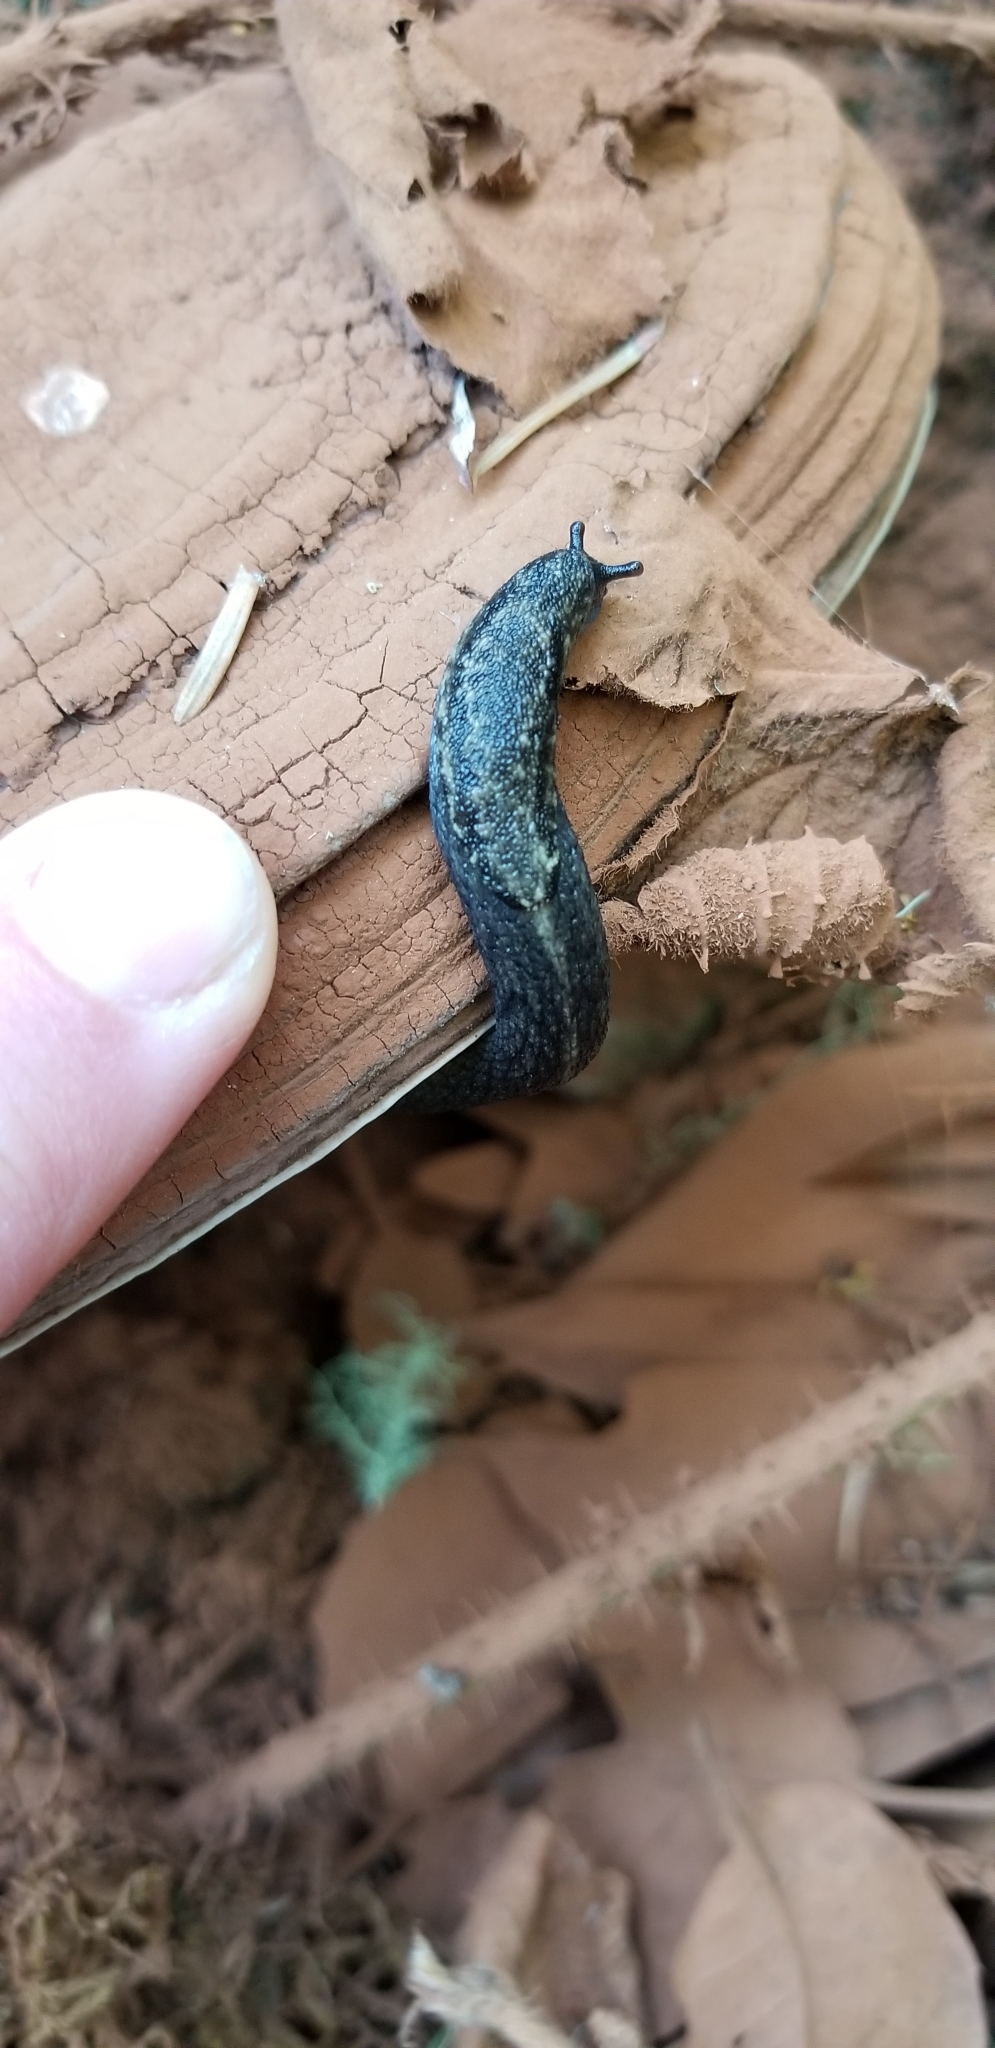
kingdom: Animalia
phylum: Mollusca
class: Gastropoda
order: Stylommatophora
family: Ariolimacidae
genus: Prophysaon
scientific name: Prophysaon andersonii
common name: Reticulate taildropper
